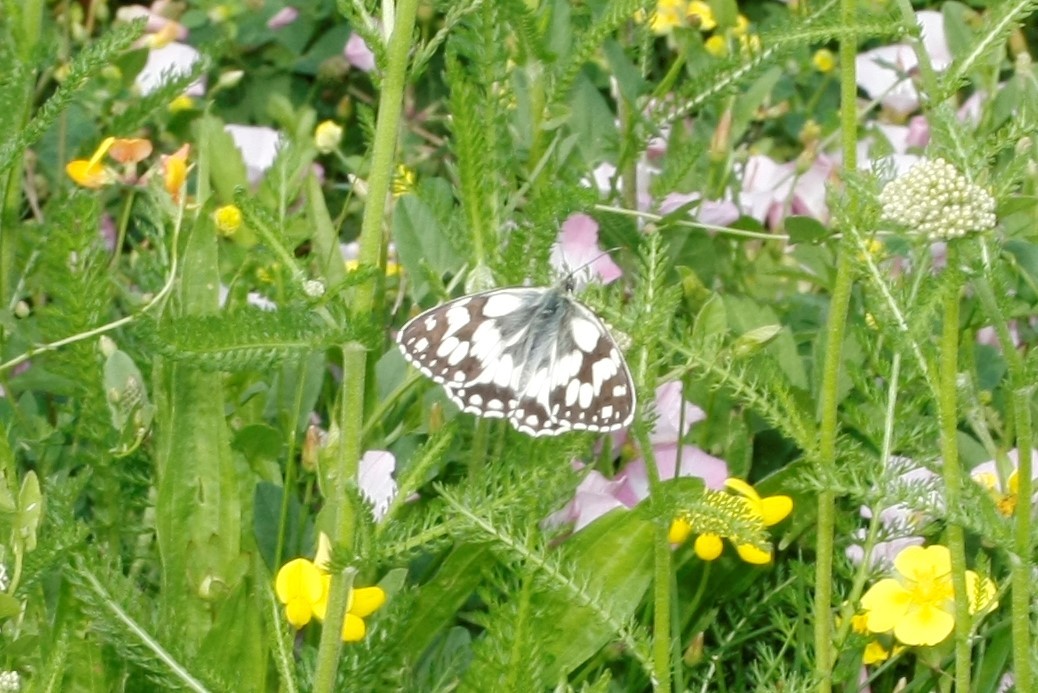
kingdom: Animalia
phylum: Arthropoda
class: Insecta
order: Lepidoptera
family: Nymphalidae
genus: Melanargia
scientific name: Melanargia galathea
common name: Marbled white
